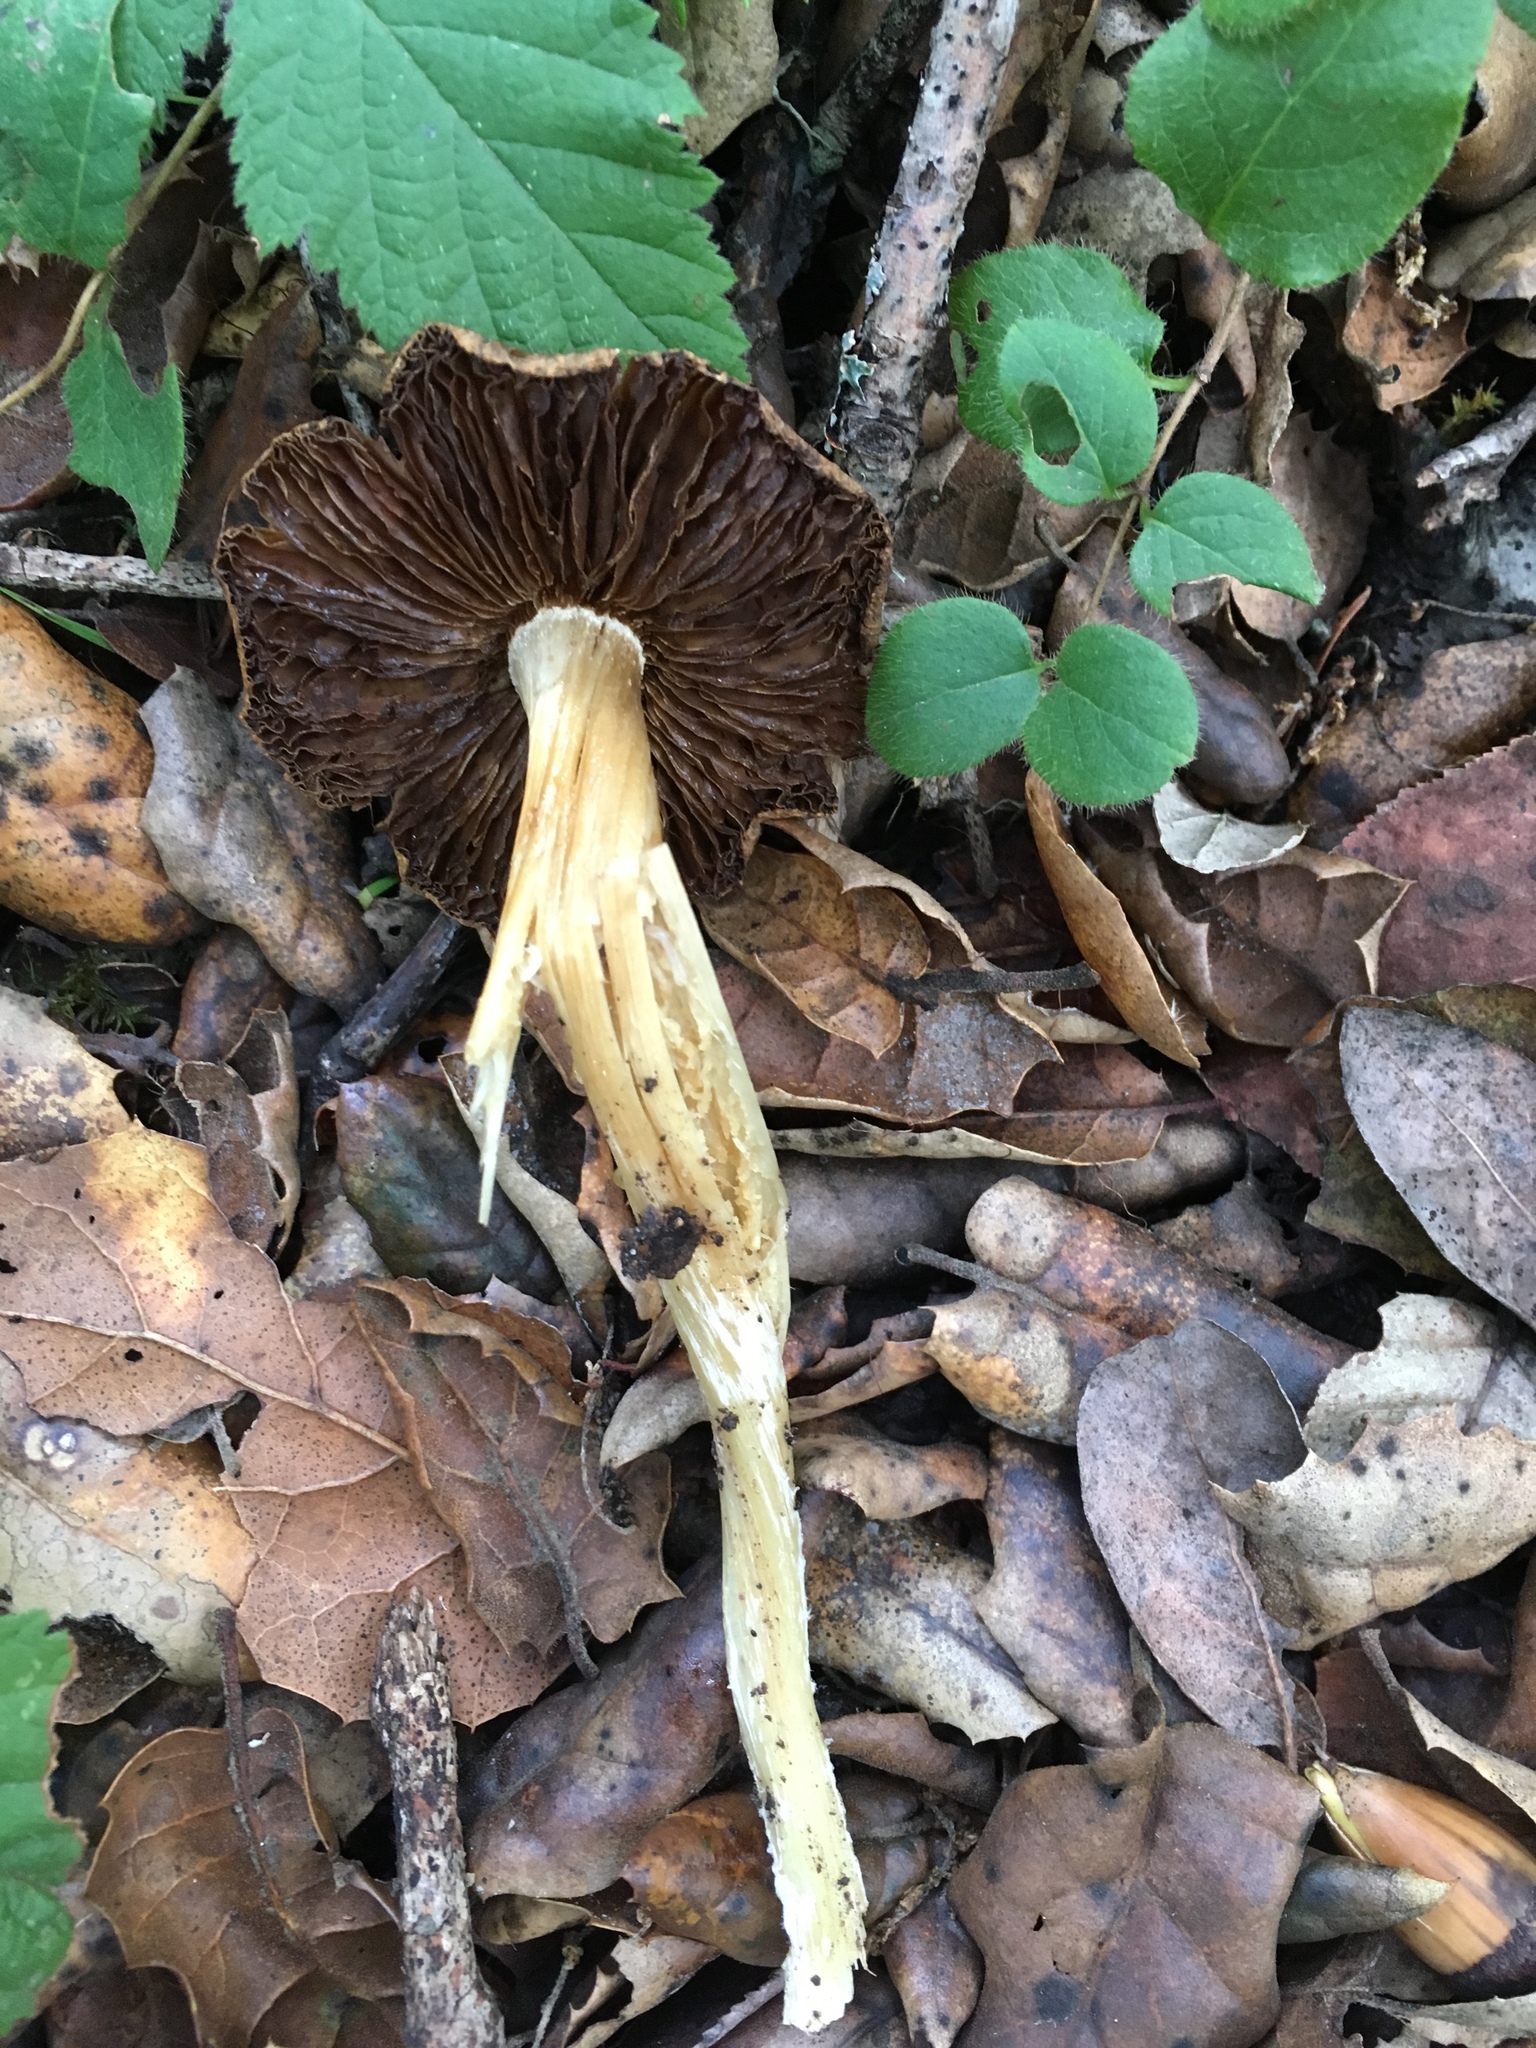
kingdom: Fungi
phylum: Basidiomycota
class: Agaricomycetes
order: Agaricales
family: Inocybaceae
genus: Pseudosperma
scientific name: Pseudosperma sororium
